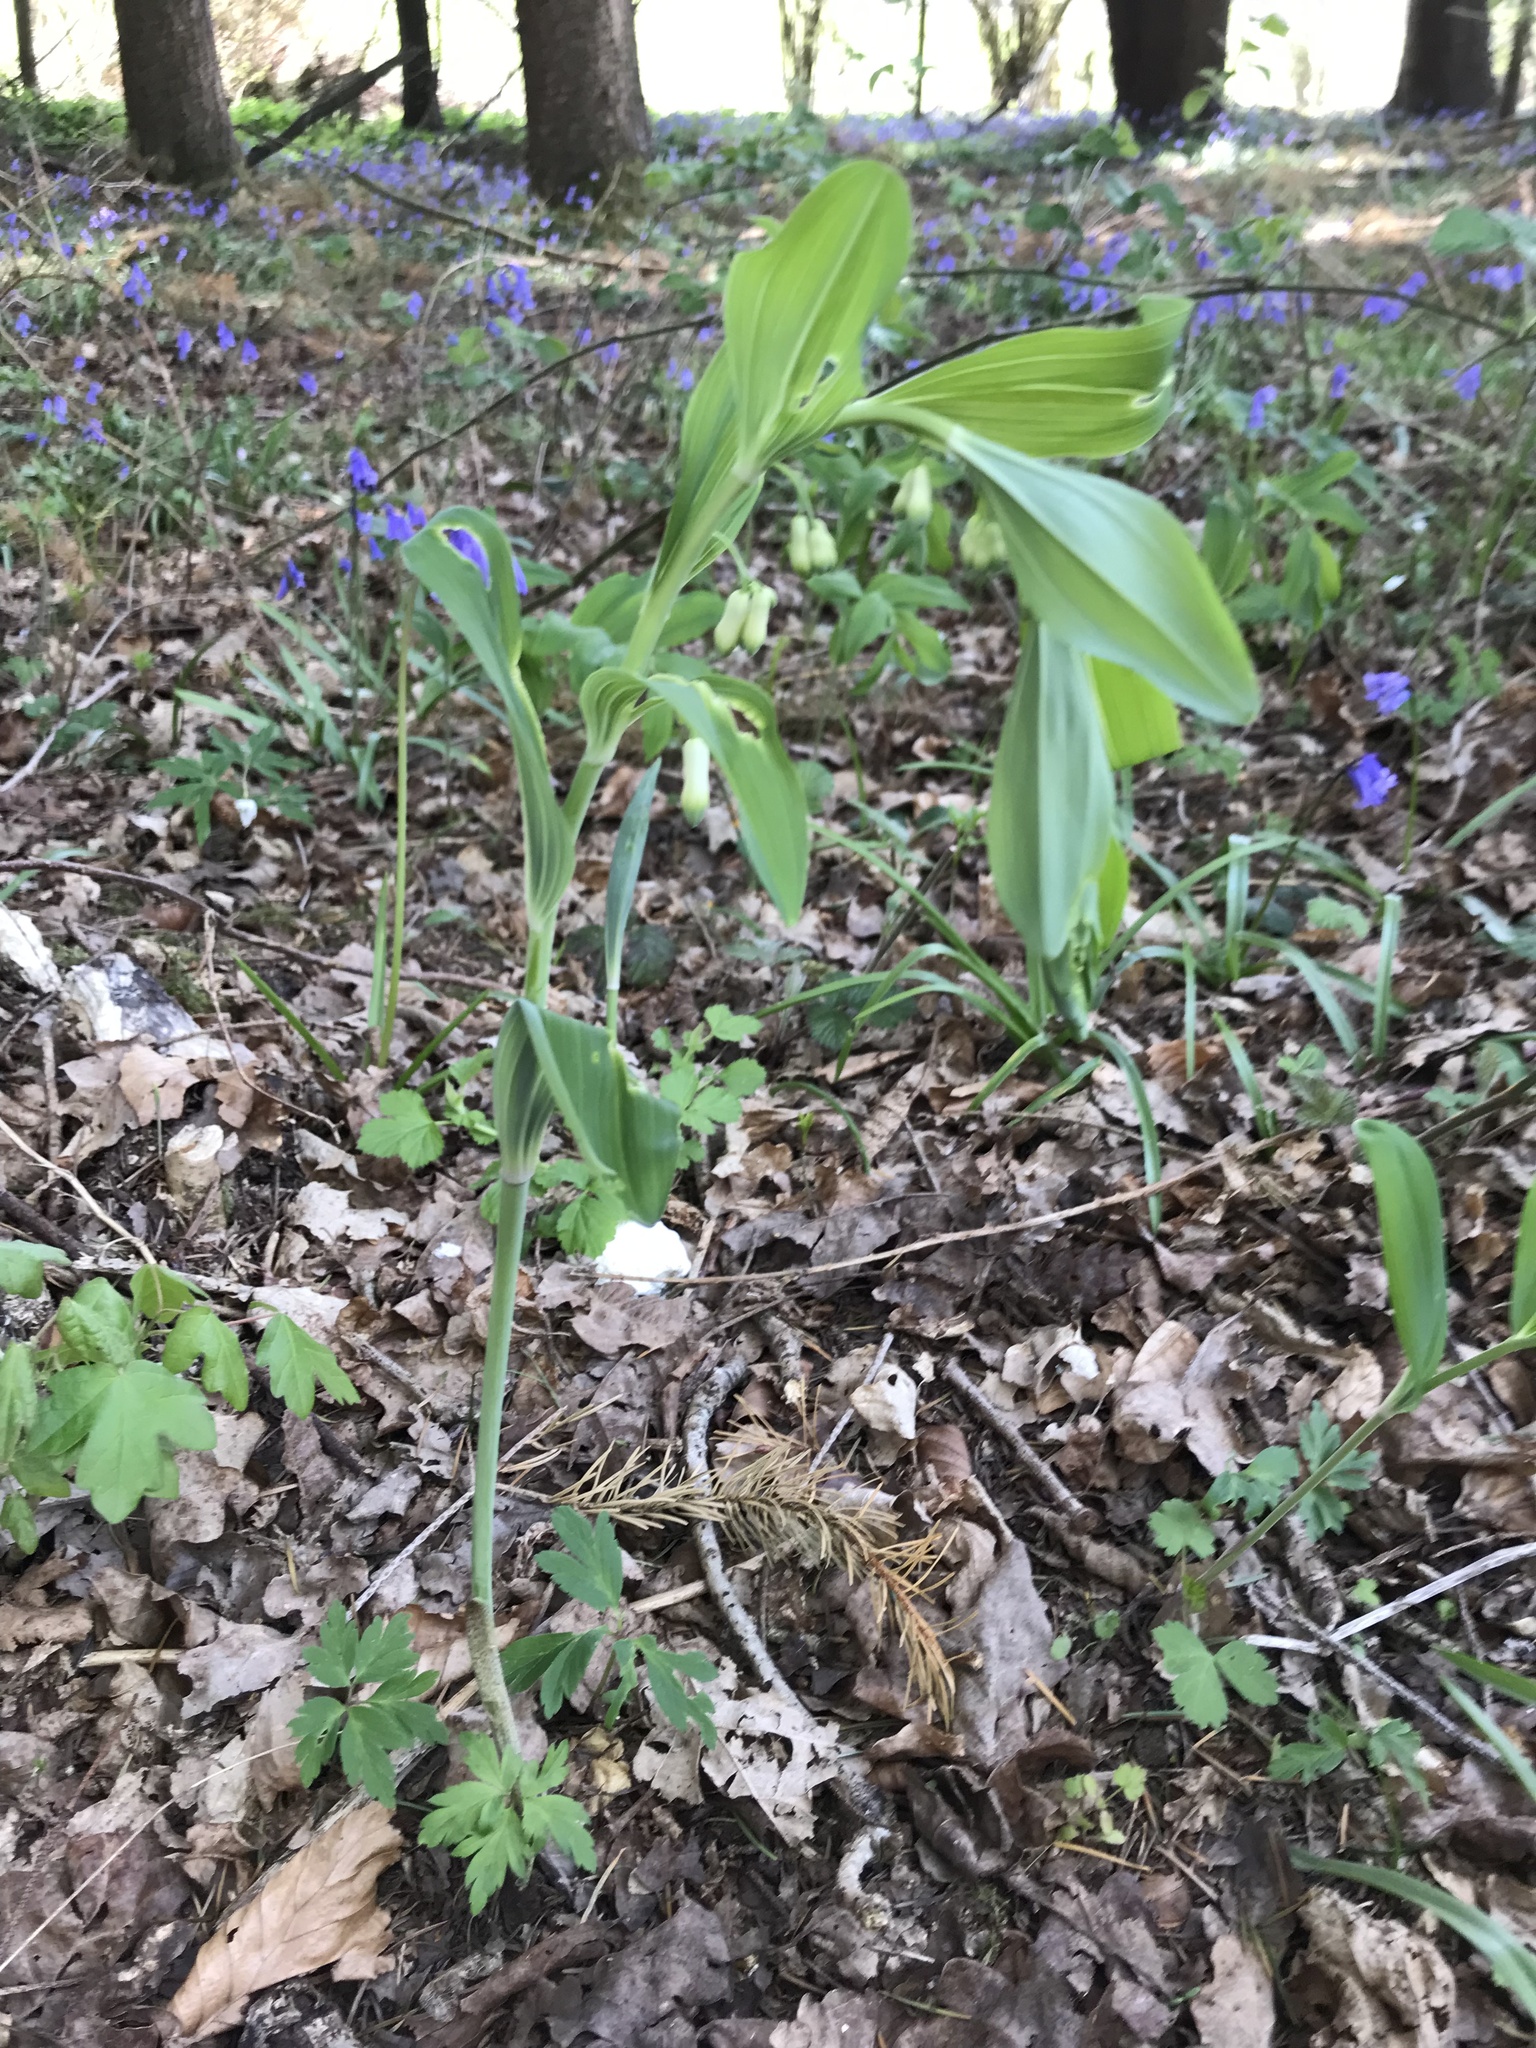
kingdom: Plantae
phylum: Tracheophyta
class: Liliopsida
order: Asparagales
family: Asparagaceae
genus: Polygonatum
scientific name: Polygonatum multiflorum
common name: Solomon's-seal
